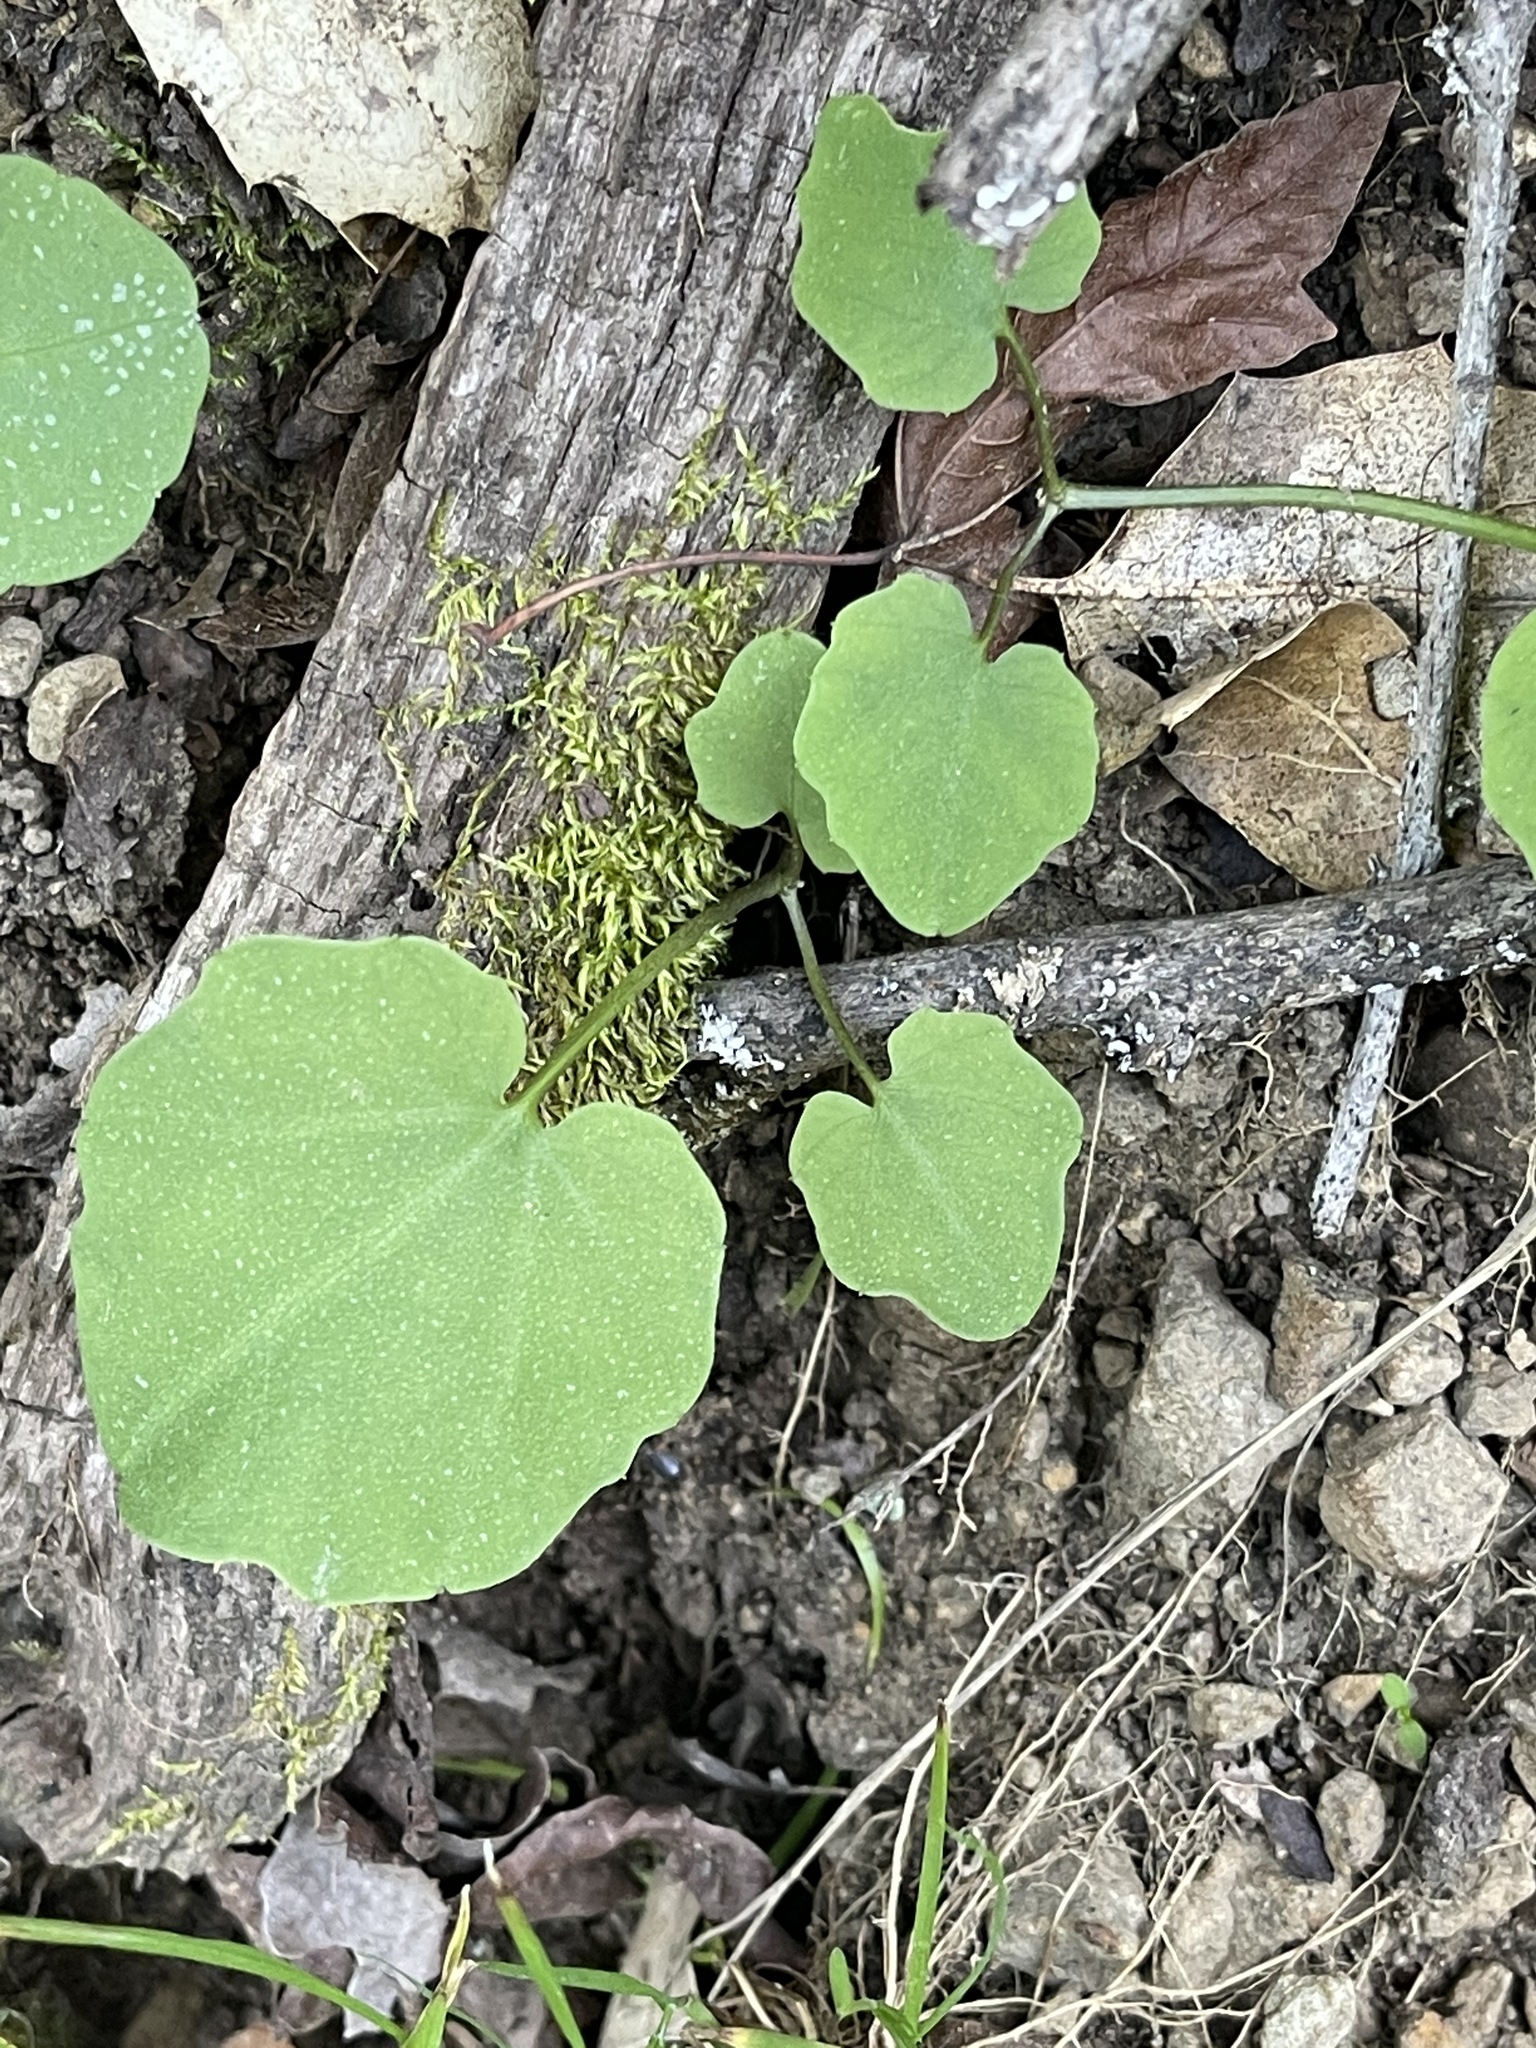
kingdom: Plantae
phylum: Tracheophyta
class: Magnoliopsida
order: Brassicales
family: Brassicaceae
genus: Cardamine
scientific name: Cardamine californica
